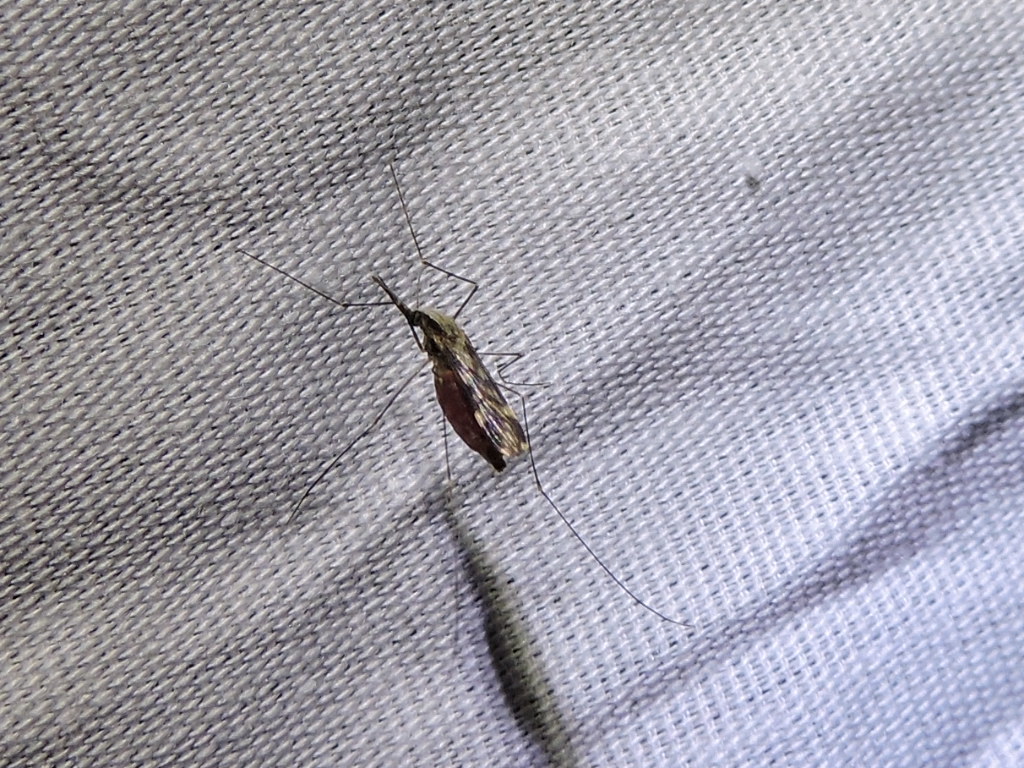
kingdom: Animalia
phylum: Arthropoda
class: Insecta
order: Diptera
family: Culicidae
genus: Anopheles
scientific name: Anopheles punctipennis
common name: Woodland malaria mosquito
